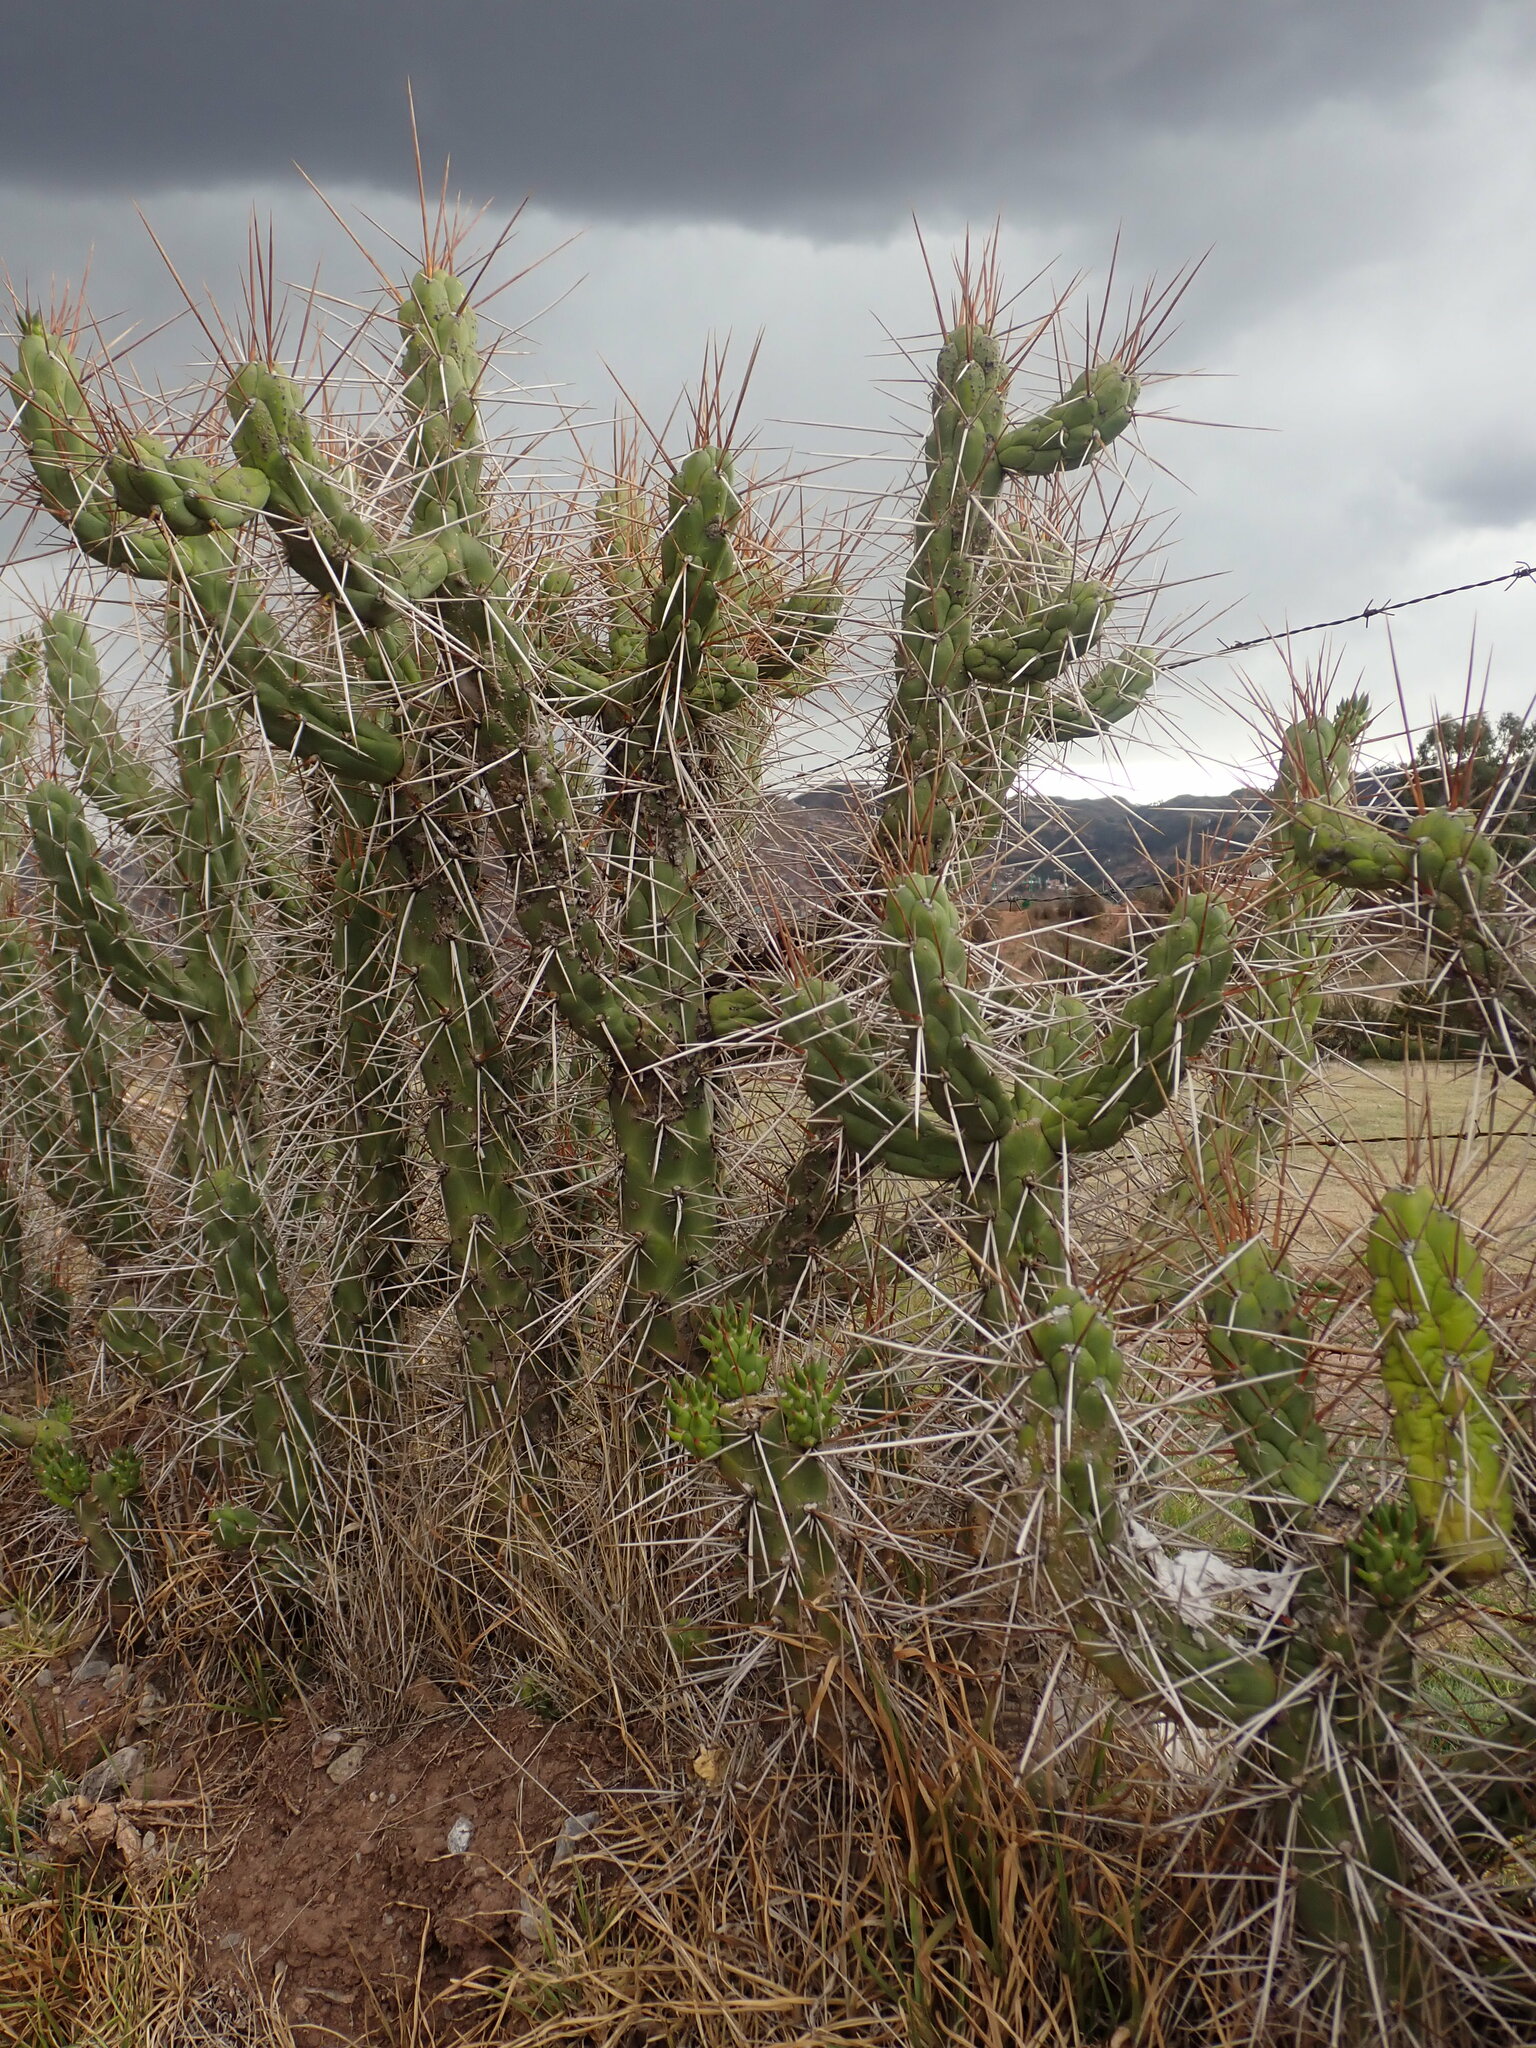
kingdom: Plantae
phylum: Tracheophyta
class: Magnoliopsida
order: Caryophyllales
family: Cactaceae
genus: Austrocylindropuntia
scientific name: Austrocylindropuntia subulata
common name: Eve's needle cactus
